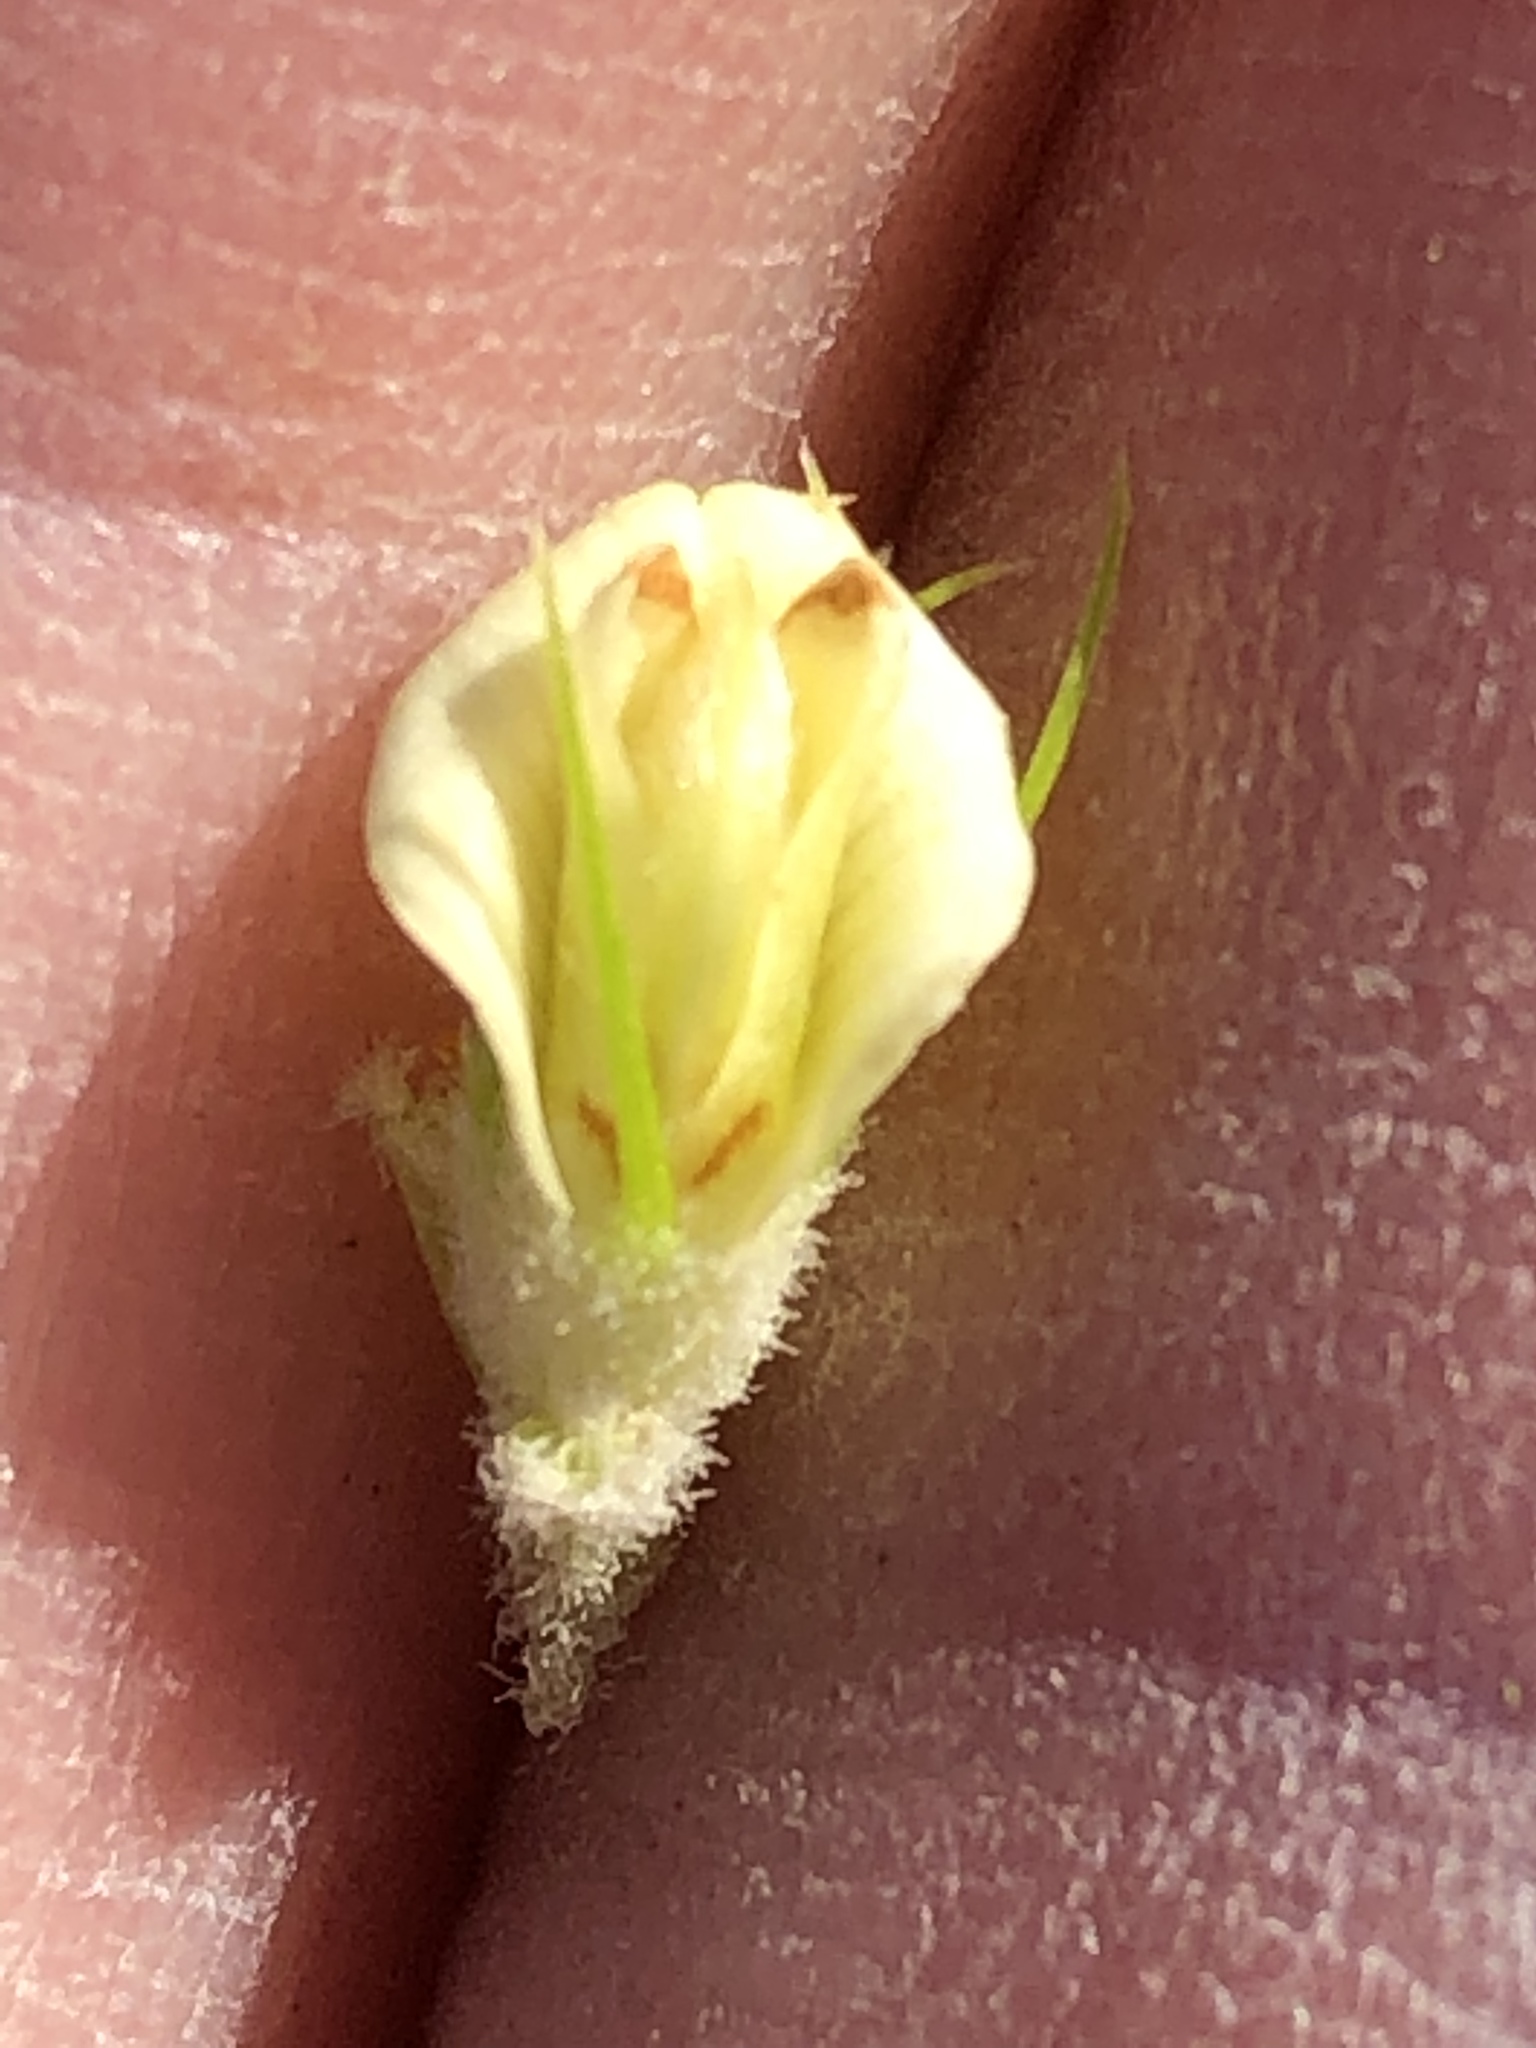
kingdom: Plantae
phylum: Tracheophyta
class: Magnoliopsida
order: Fabales
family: Fabaceae
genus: Aspalathus
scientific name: Aspalathus alopecurus
